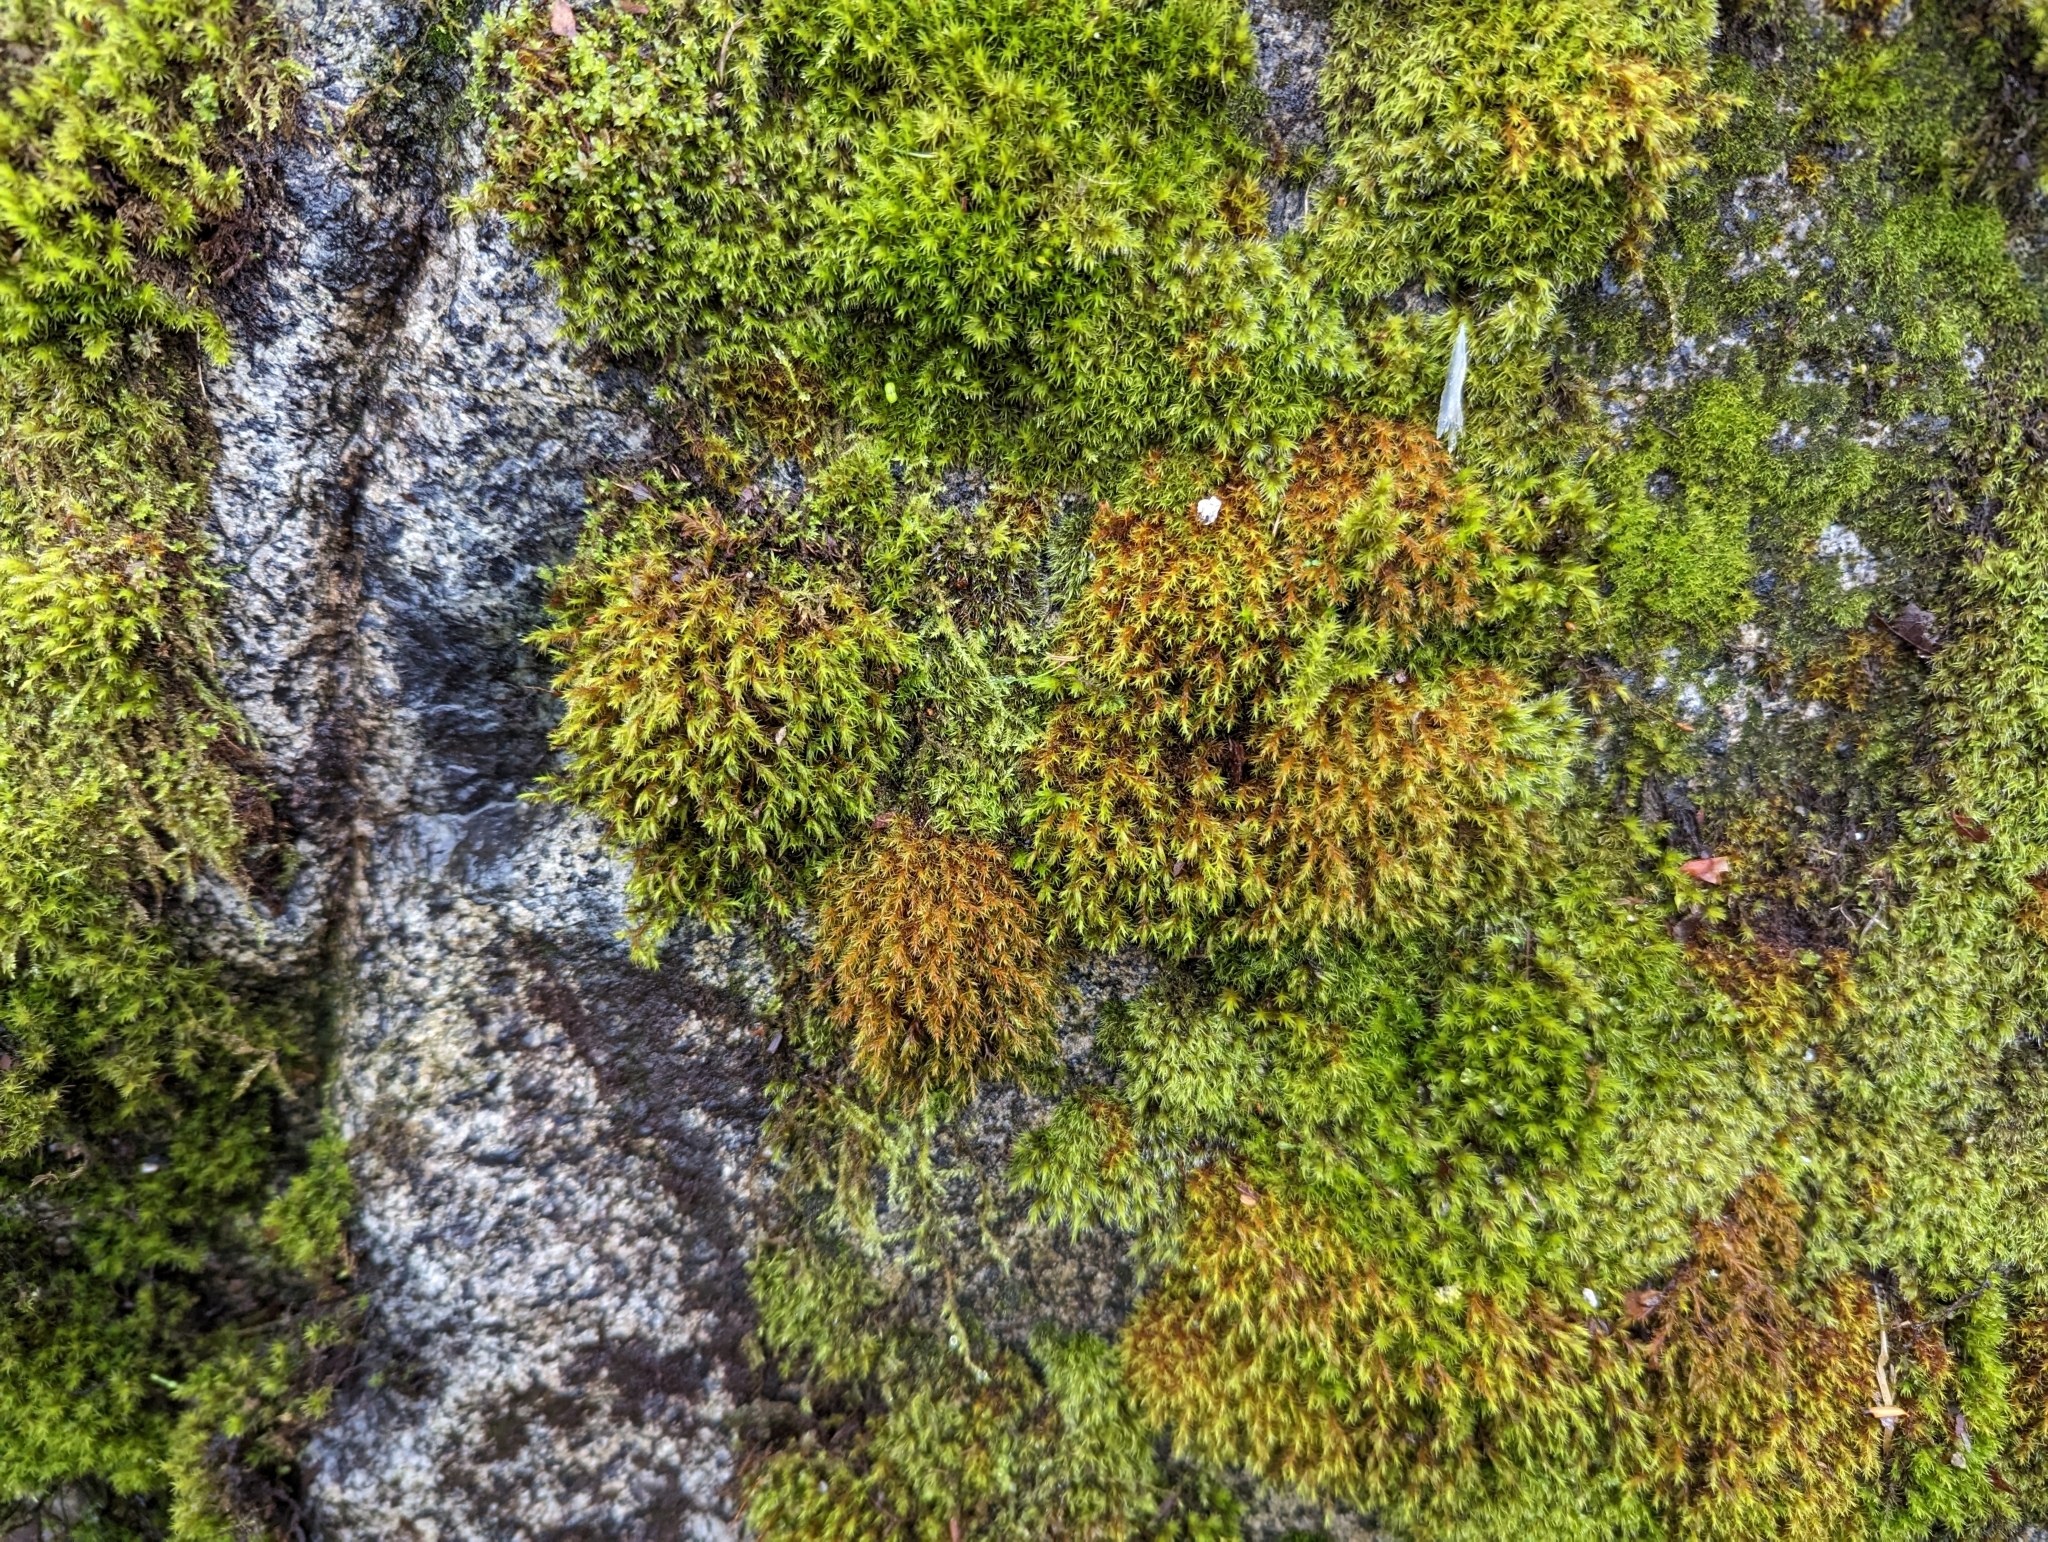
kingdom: Plantae
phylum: Bryophyta
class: Bryopsida
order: Grimmiales
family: Grimmiaceae
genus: Schistidium
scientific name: Schistidium papillosum
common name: Papillose bloom moss
